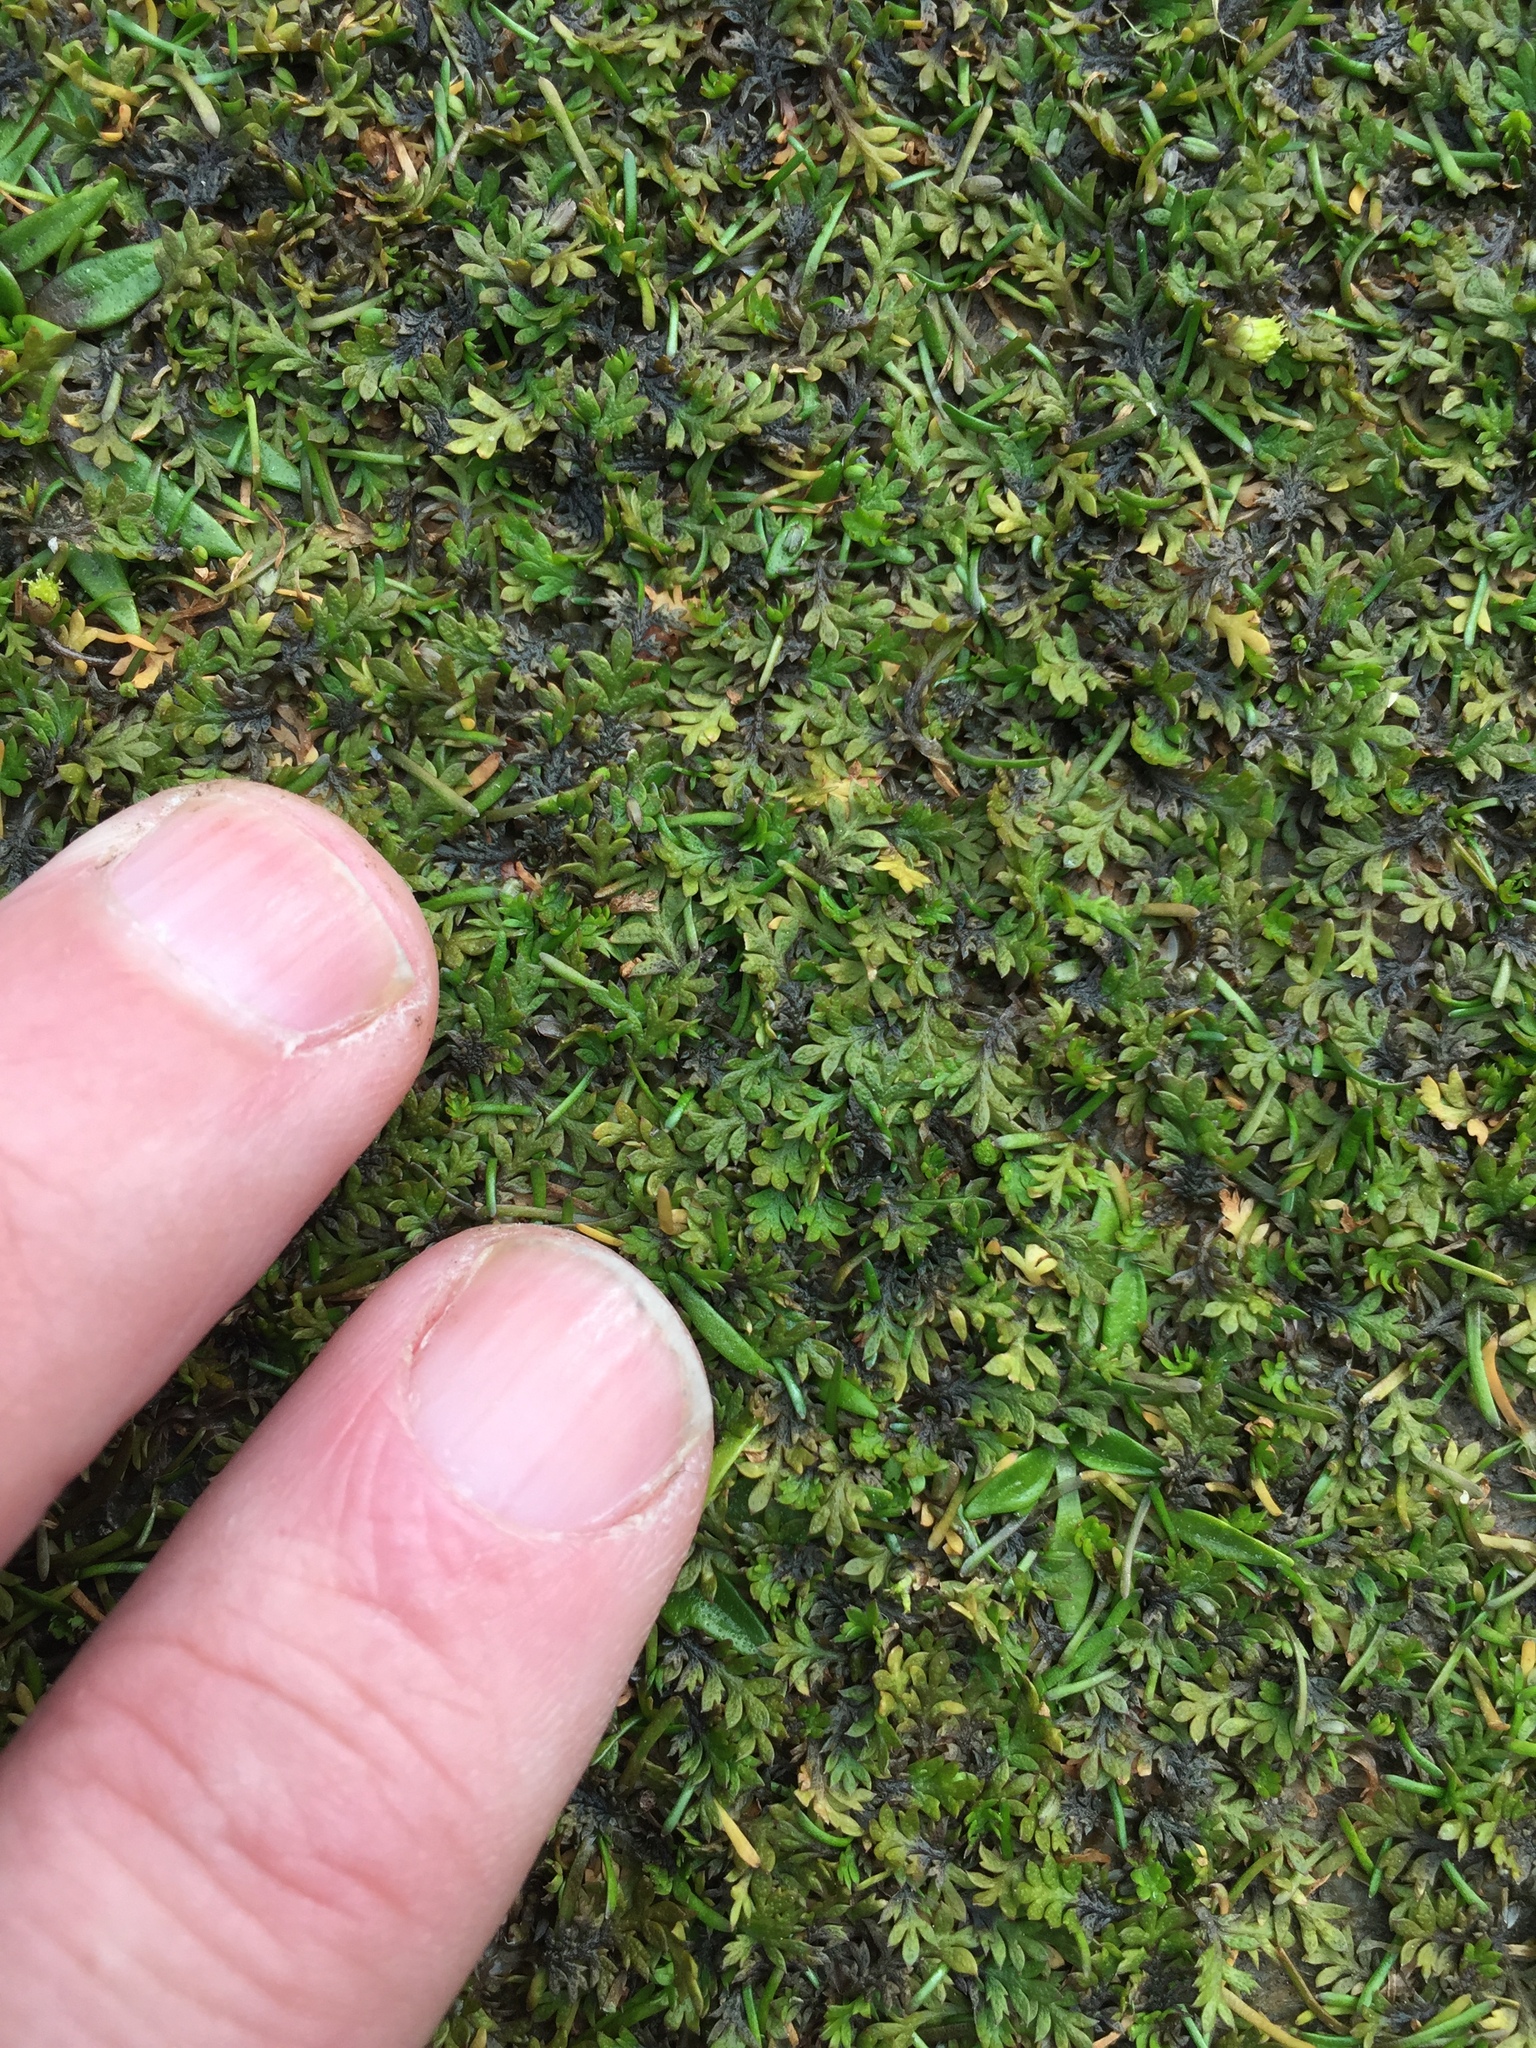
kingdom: Plantae
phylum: Tracheophyta
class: Magnoliopsida
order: Asterales
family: Asteraceae
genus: Leptinella
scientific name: Leptinella maniototo
